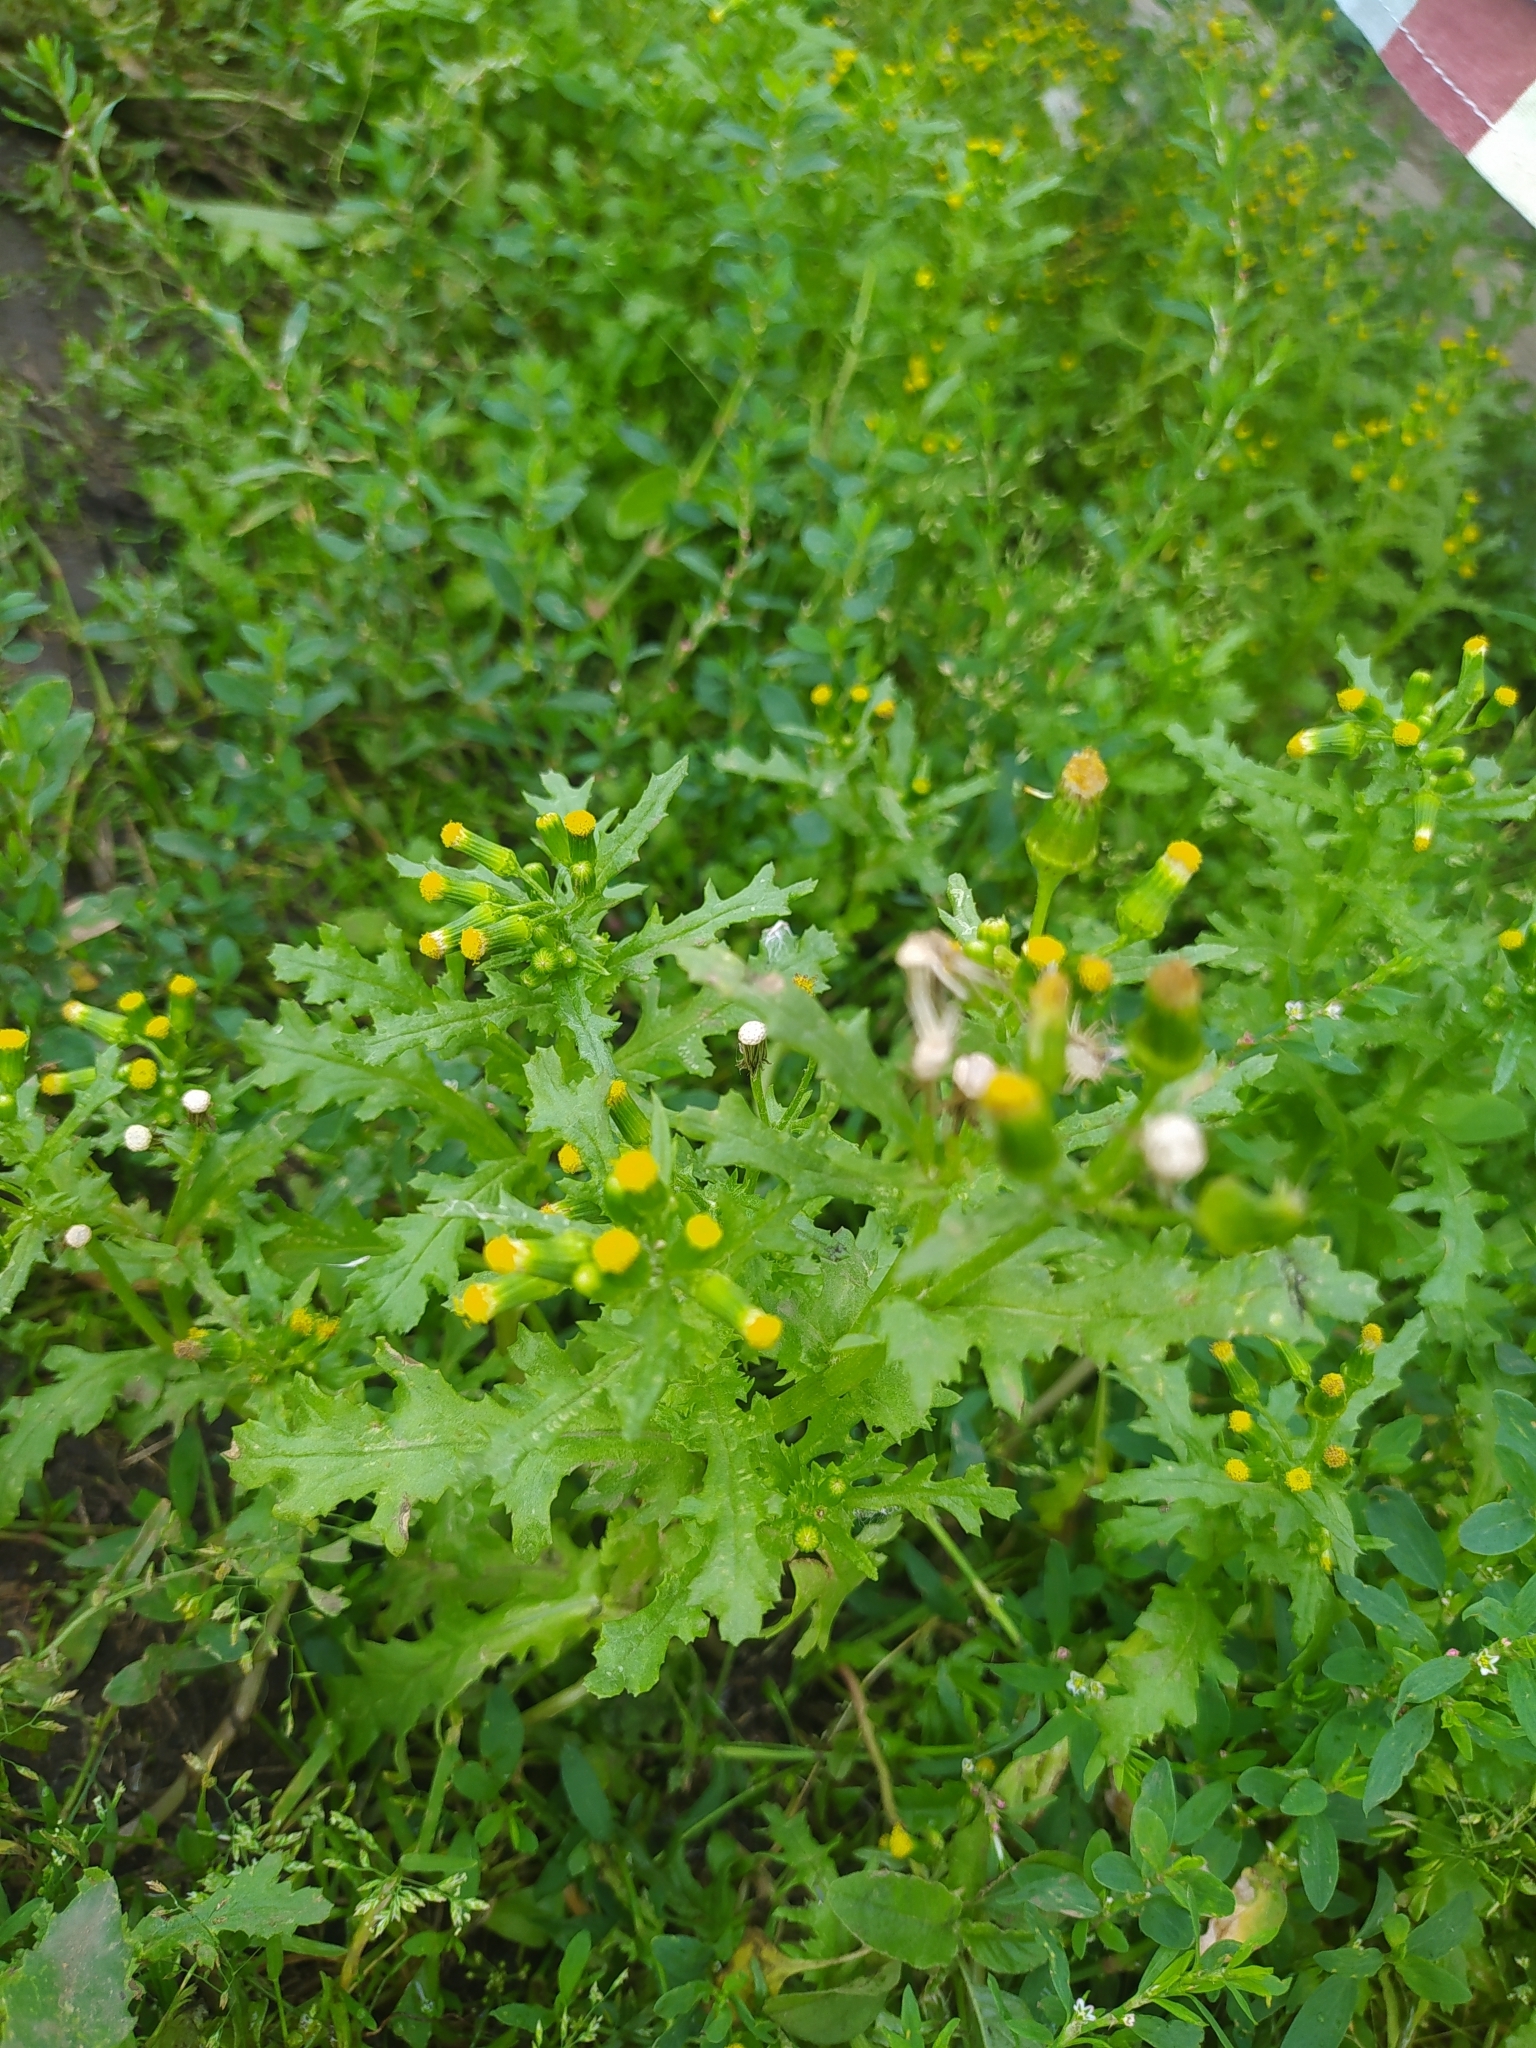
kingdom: Plantae
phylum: Tracheophyta
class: Magnoliopsida
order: Asterales
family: Asteraceae
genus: Senecio
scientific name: Senecio vulgaris
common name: Old-man-in-the-spring
